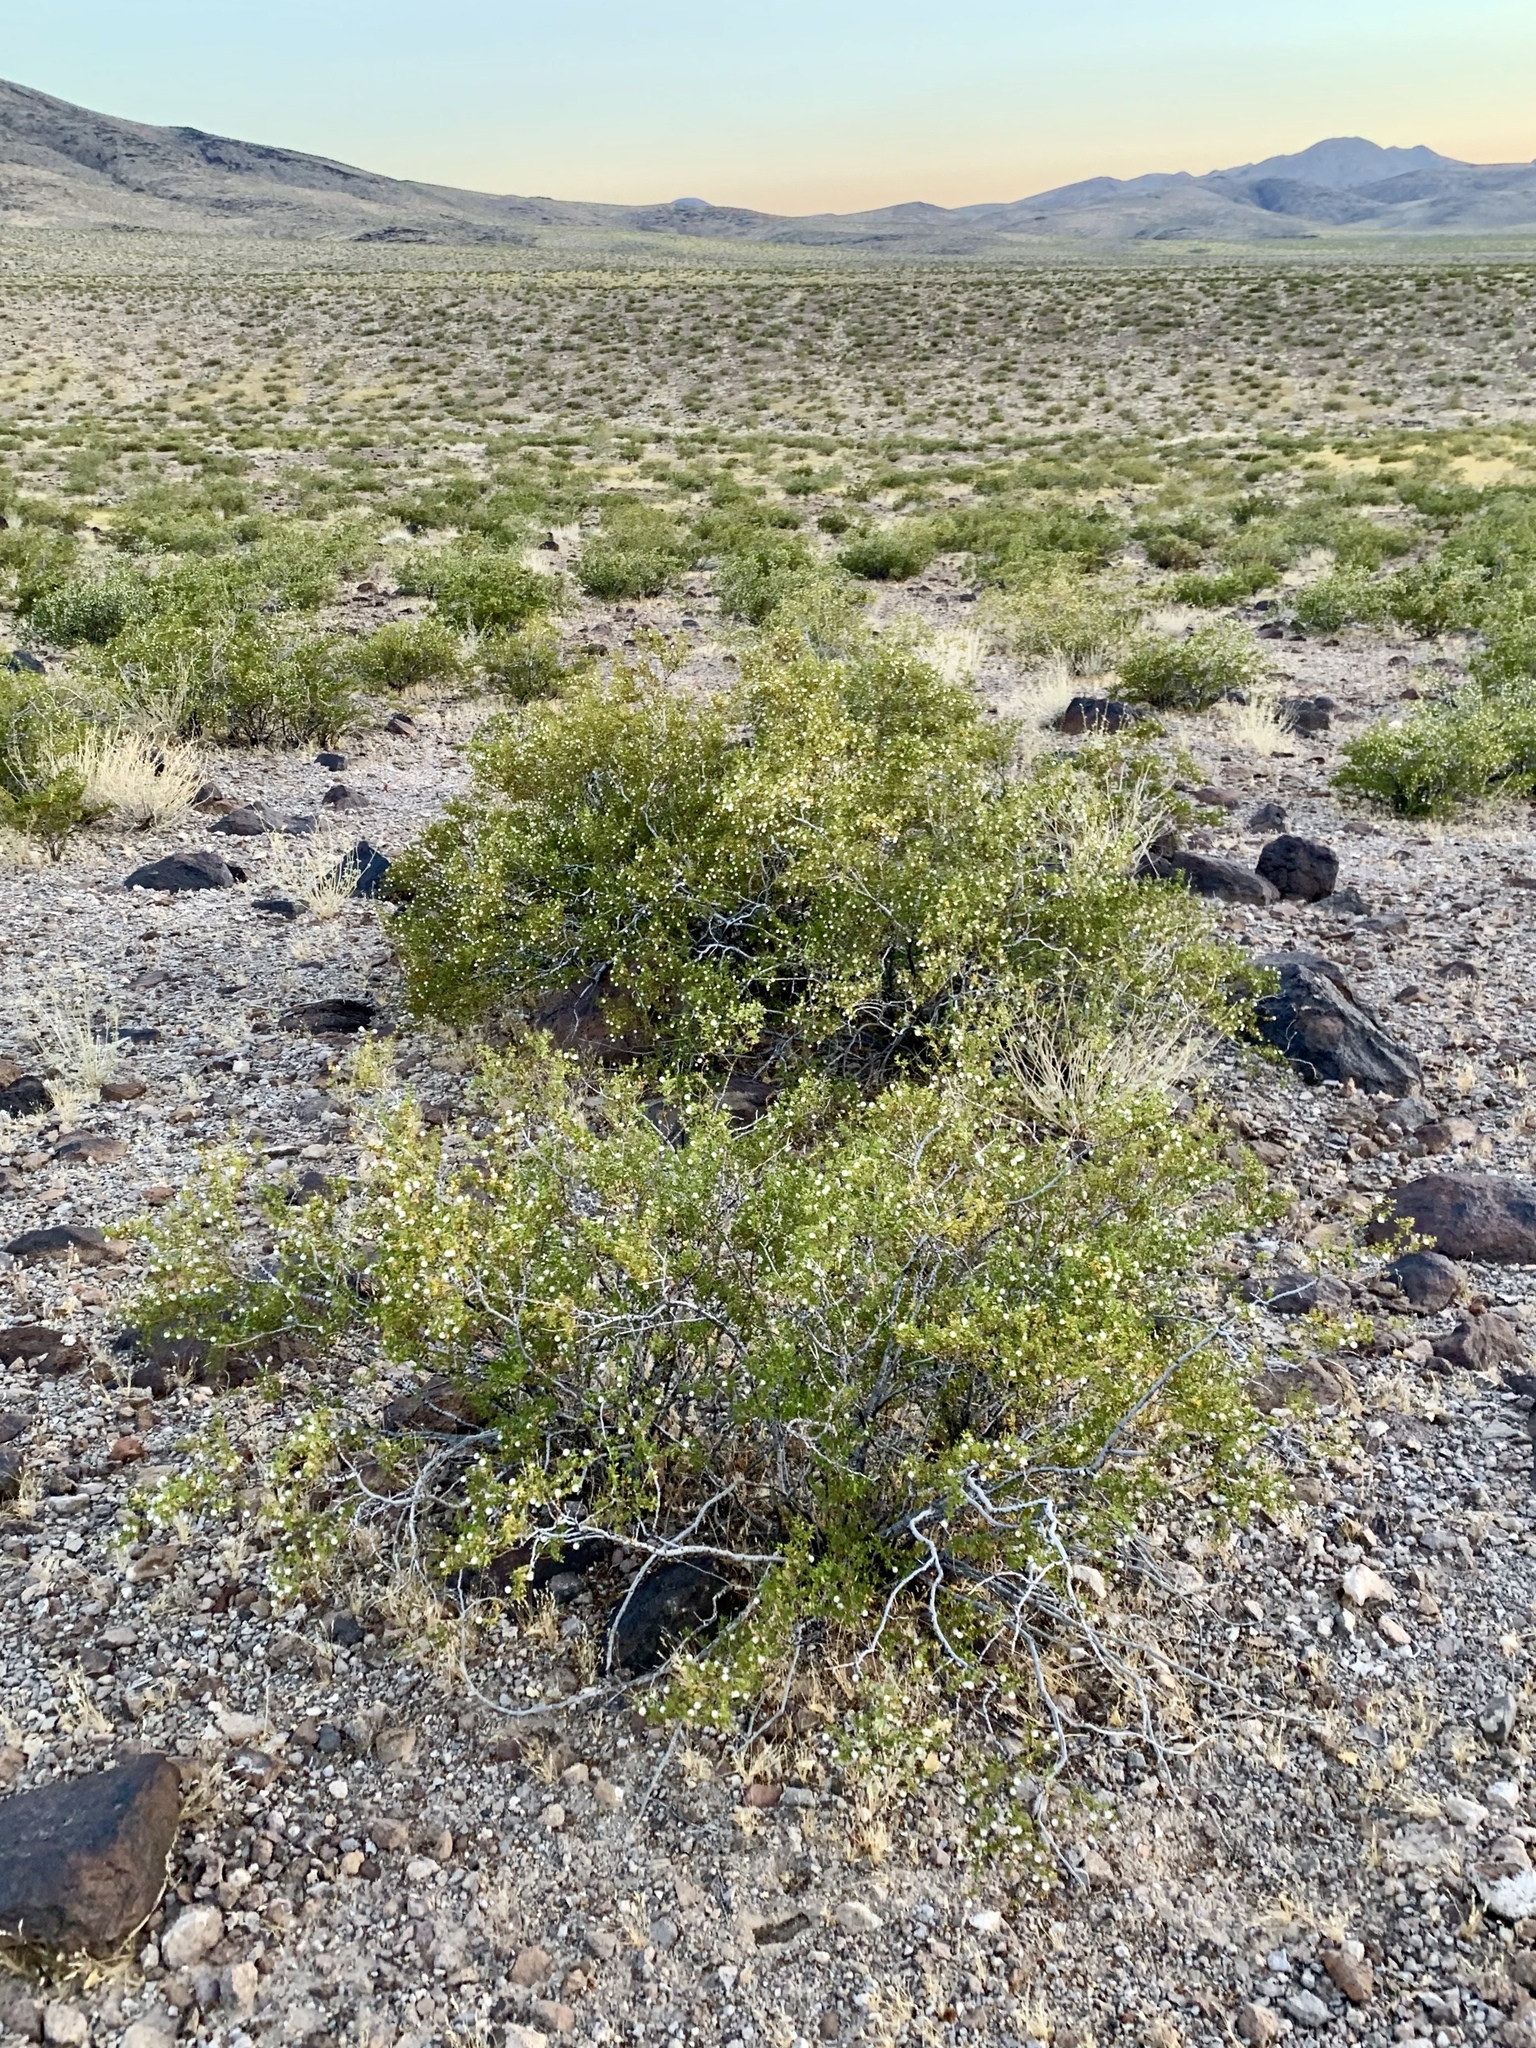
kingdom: Plantae
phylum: Tracheophyta
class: Magnoliopsida
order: Zygophyllales
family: Zygophyllaceae
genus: Larrea
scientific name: Larrea tridentata
